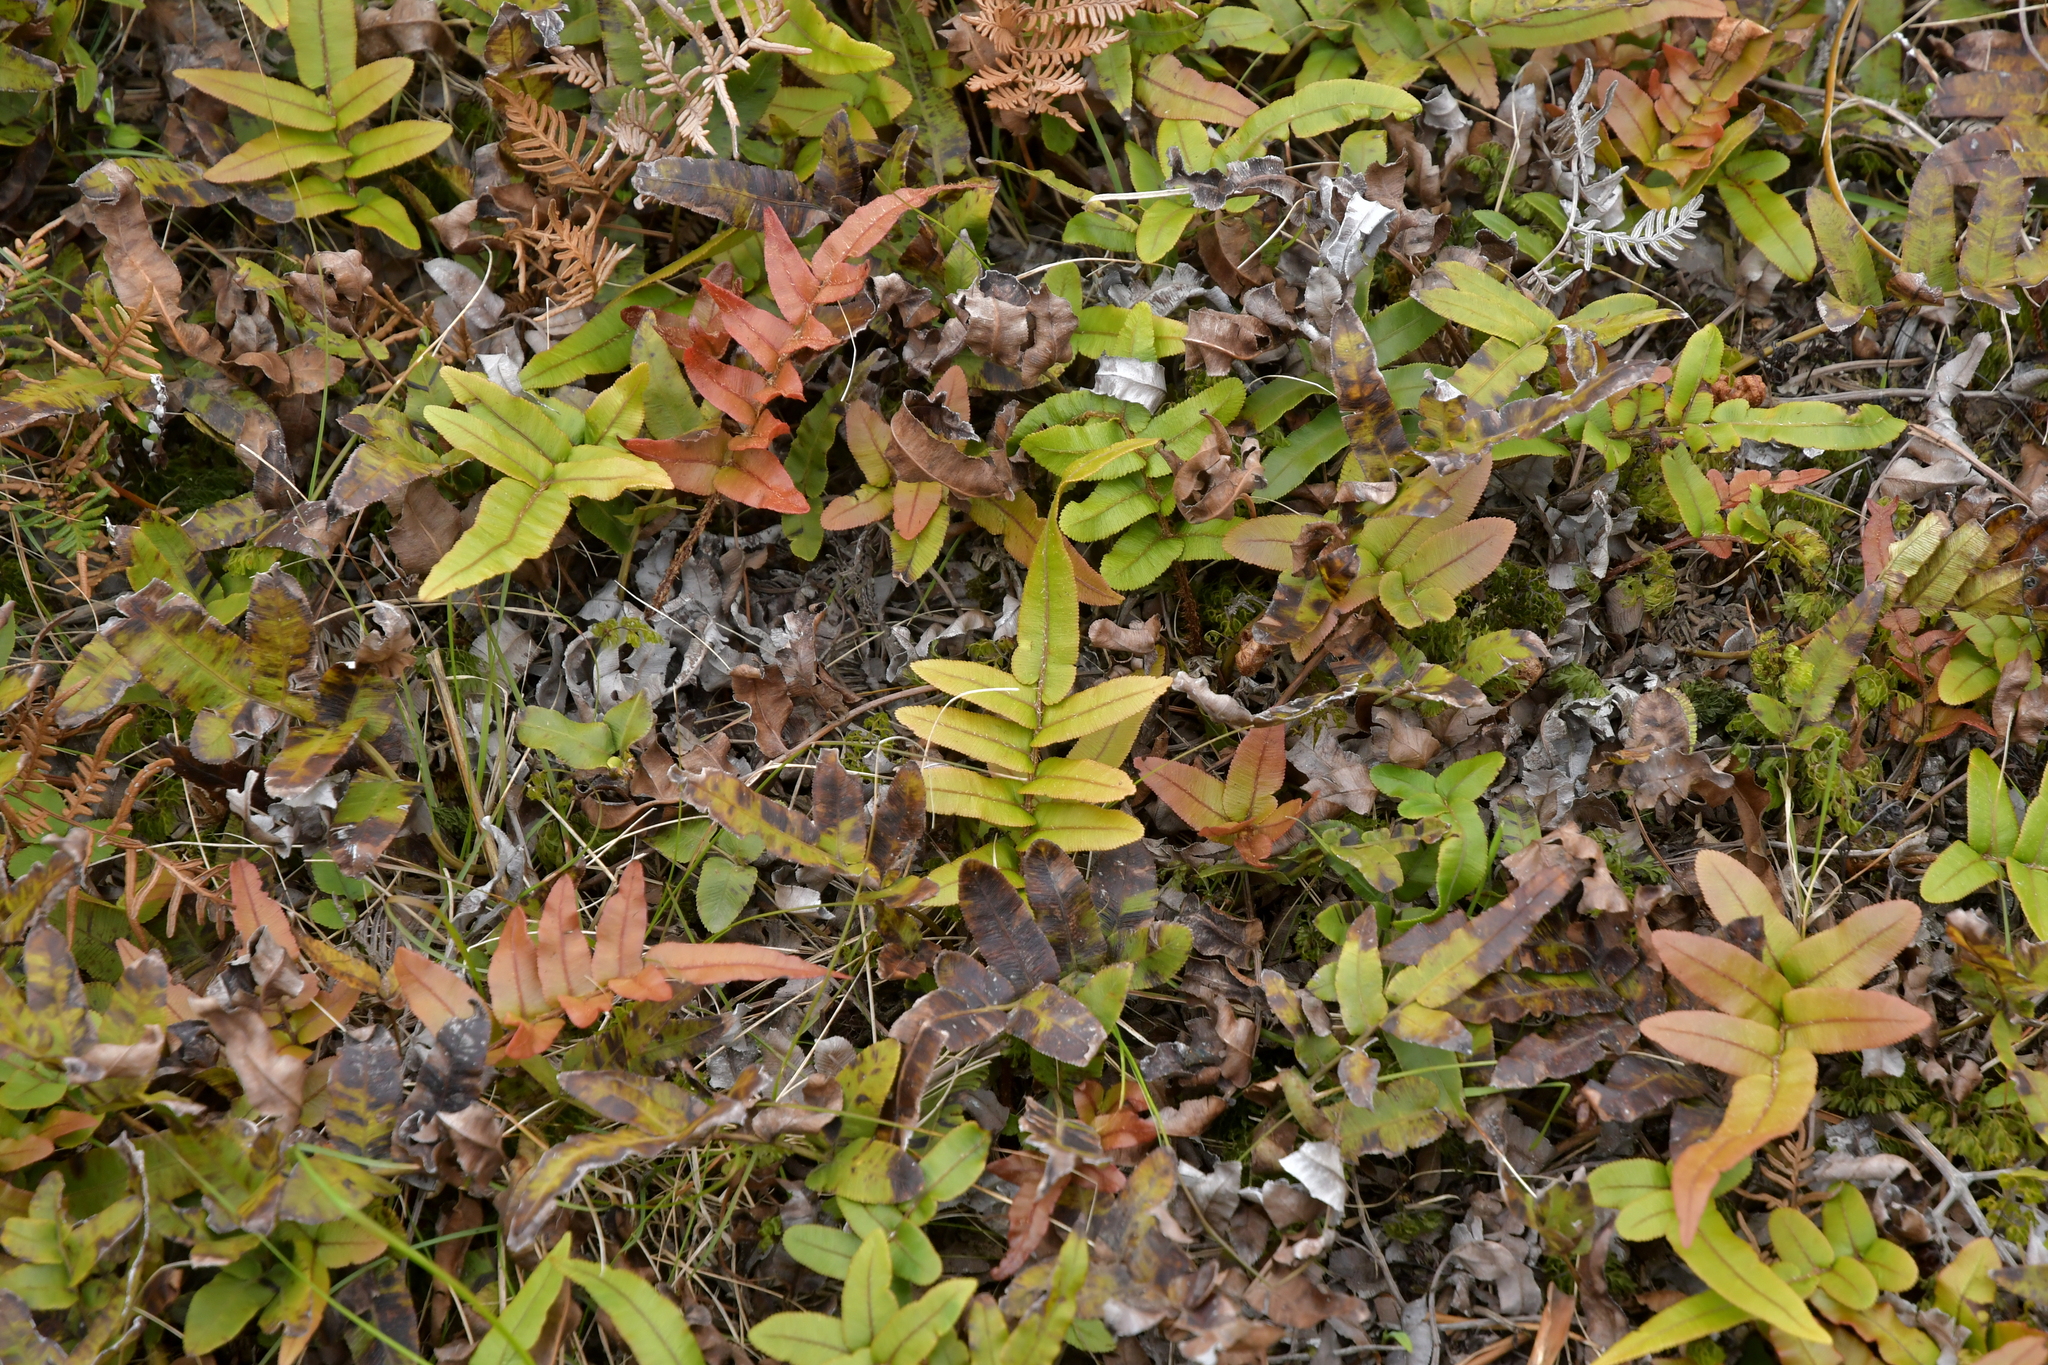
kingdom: Plantae
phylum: Tracheophyta
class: Polypodiopsida
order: Polypodiales
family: Blechnaceae
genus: Parablechnum
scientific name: Parablechnum procerum
